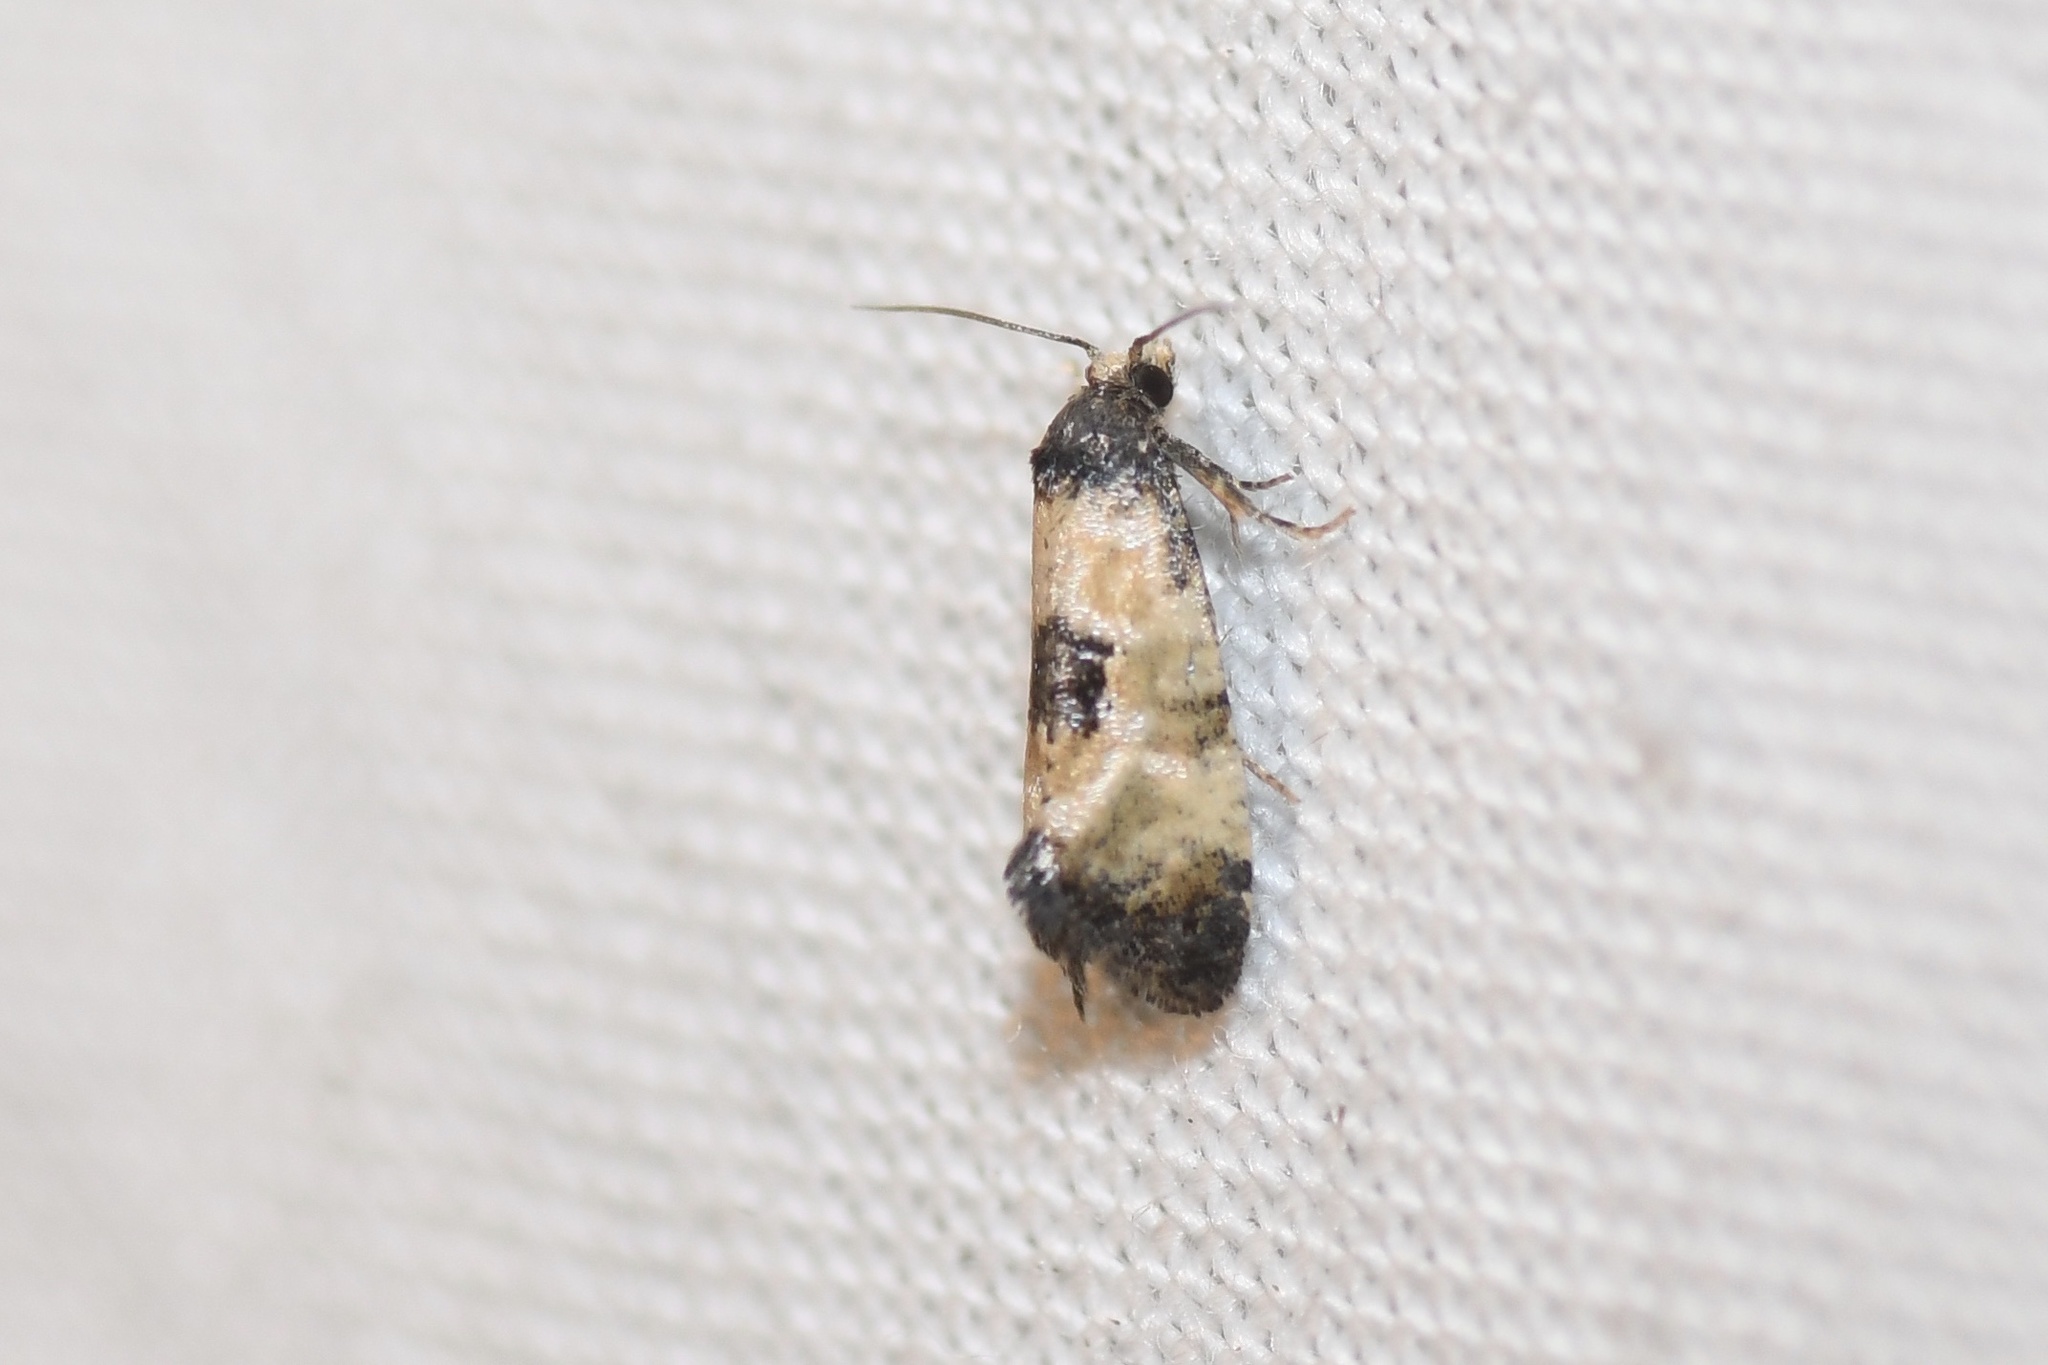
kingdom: Animalia
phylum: Arthropoda
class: Insecta
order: Lepidoptera
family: Tortricidae
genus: Cochylis
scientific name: Cochylis dubitana
